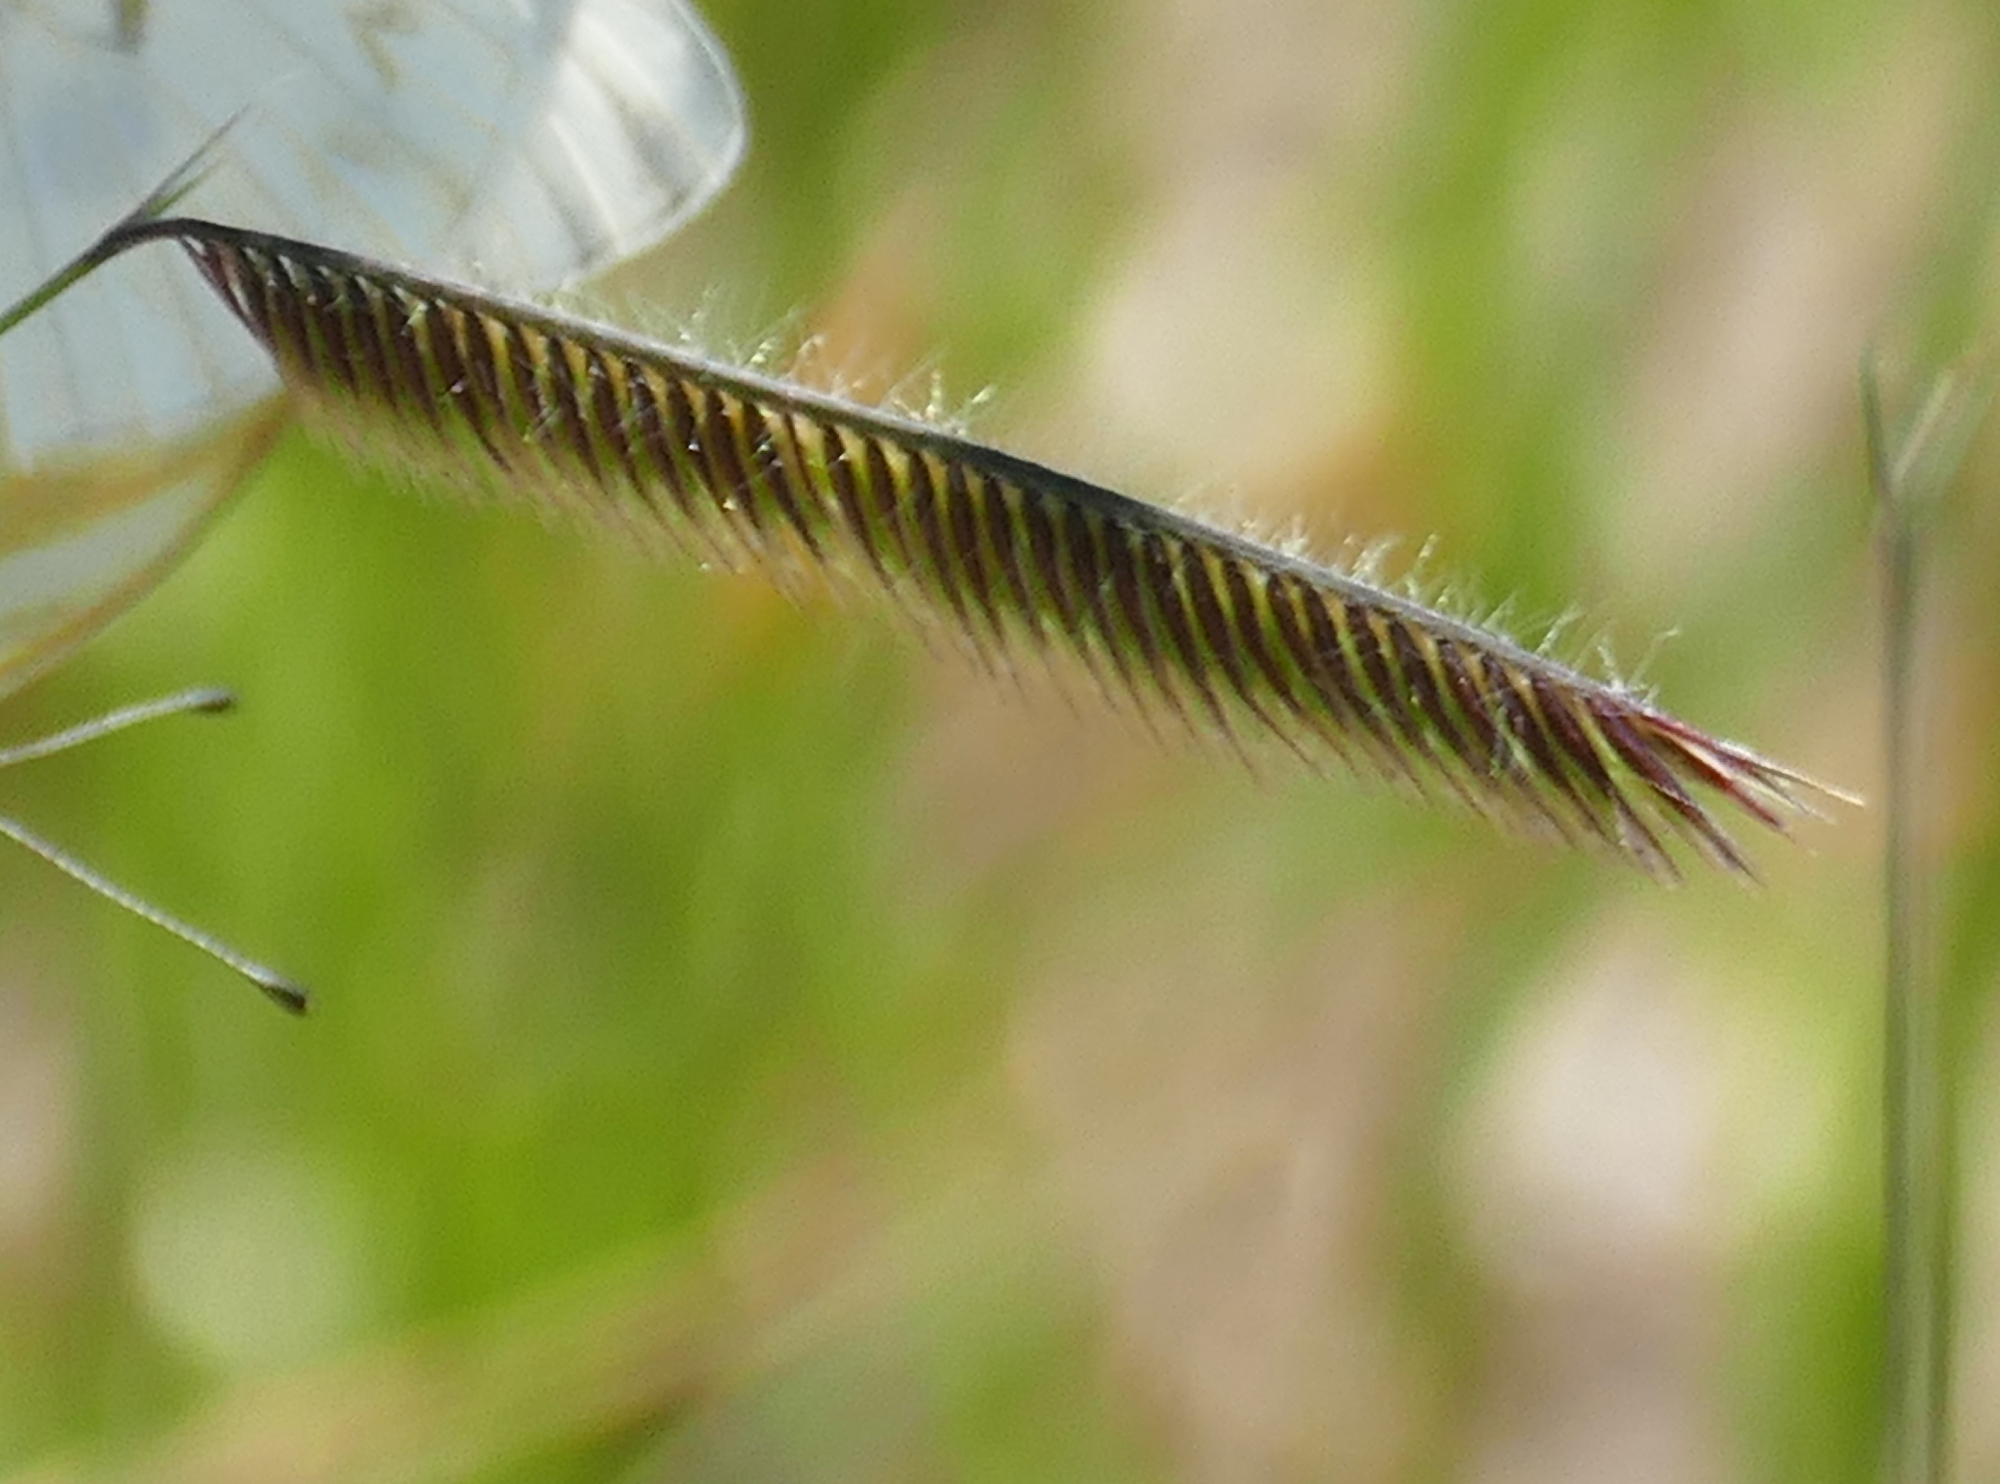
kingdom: Plantae
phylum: Tracheophyta
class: Liliopsida
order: Poales
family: Poaceae
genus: Bouteloua
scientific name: Bouteloua gracilis
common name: Blue grama
